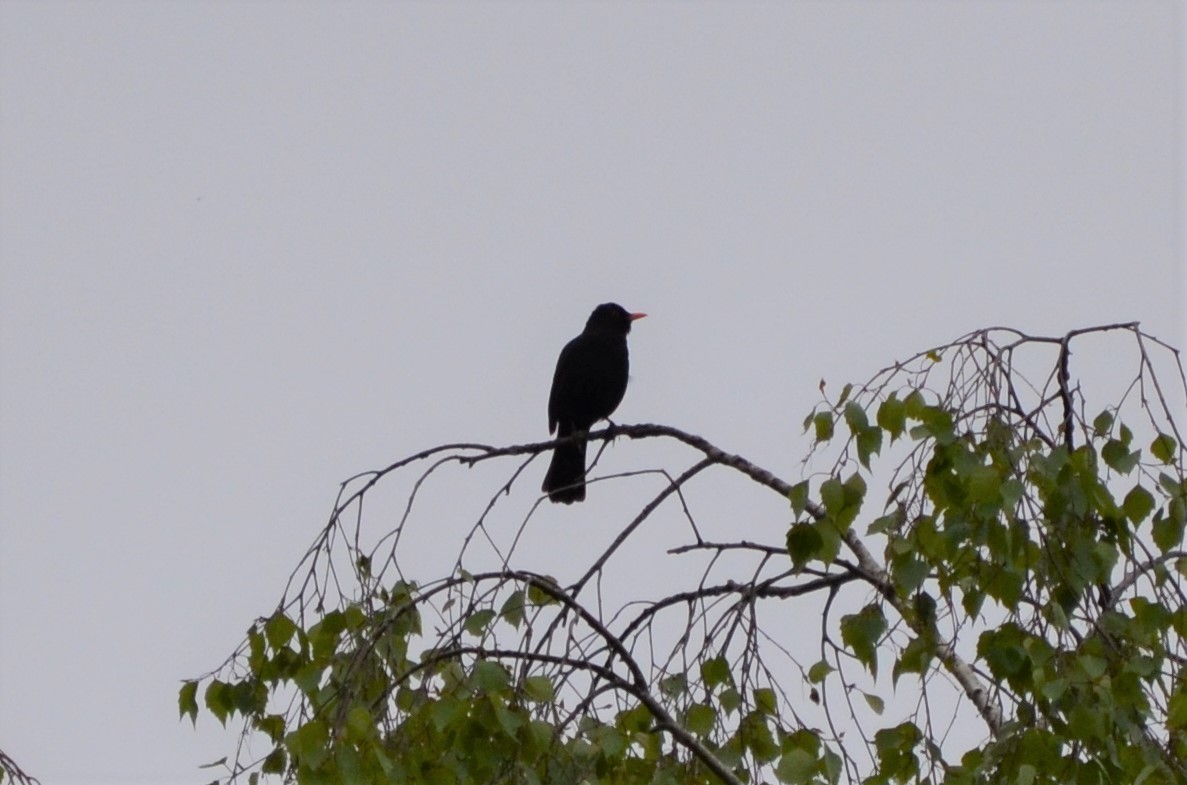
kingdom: Animalia
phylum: Chordata
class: Aves
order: Passeriformes
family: Turdidae
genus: Turdus
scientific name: Turdus merula
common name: Common blackbird
